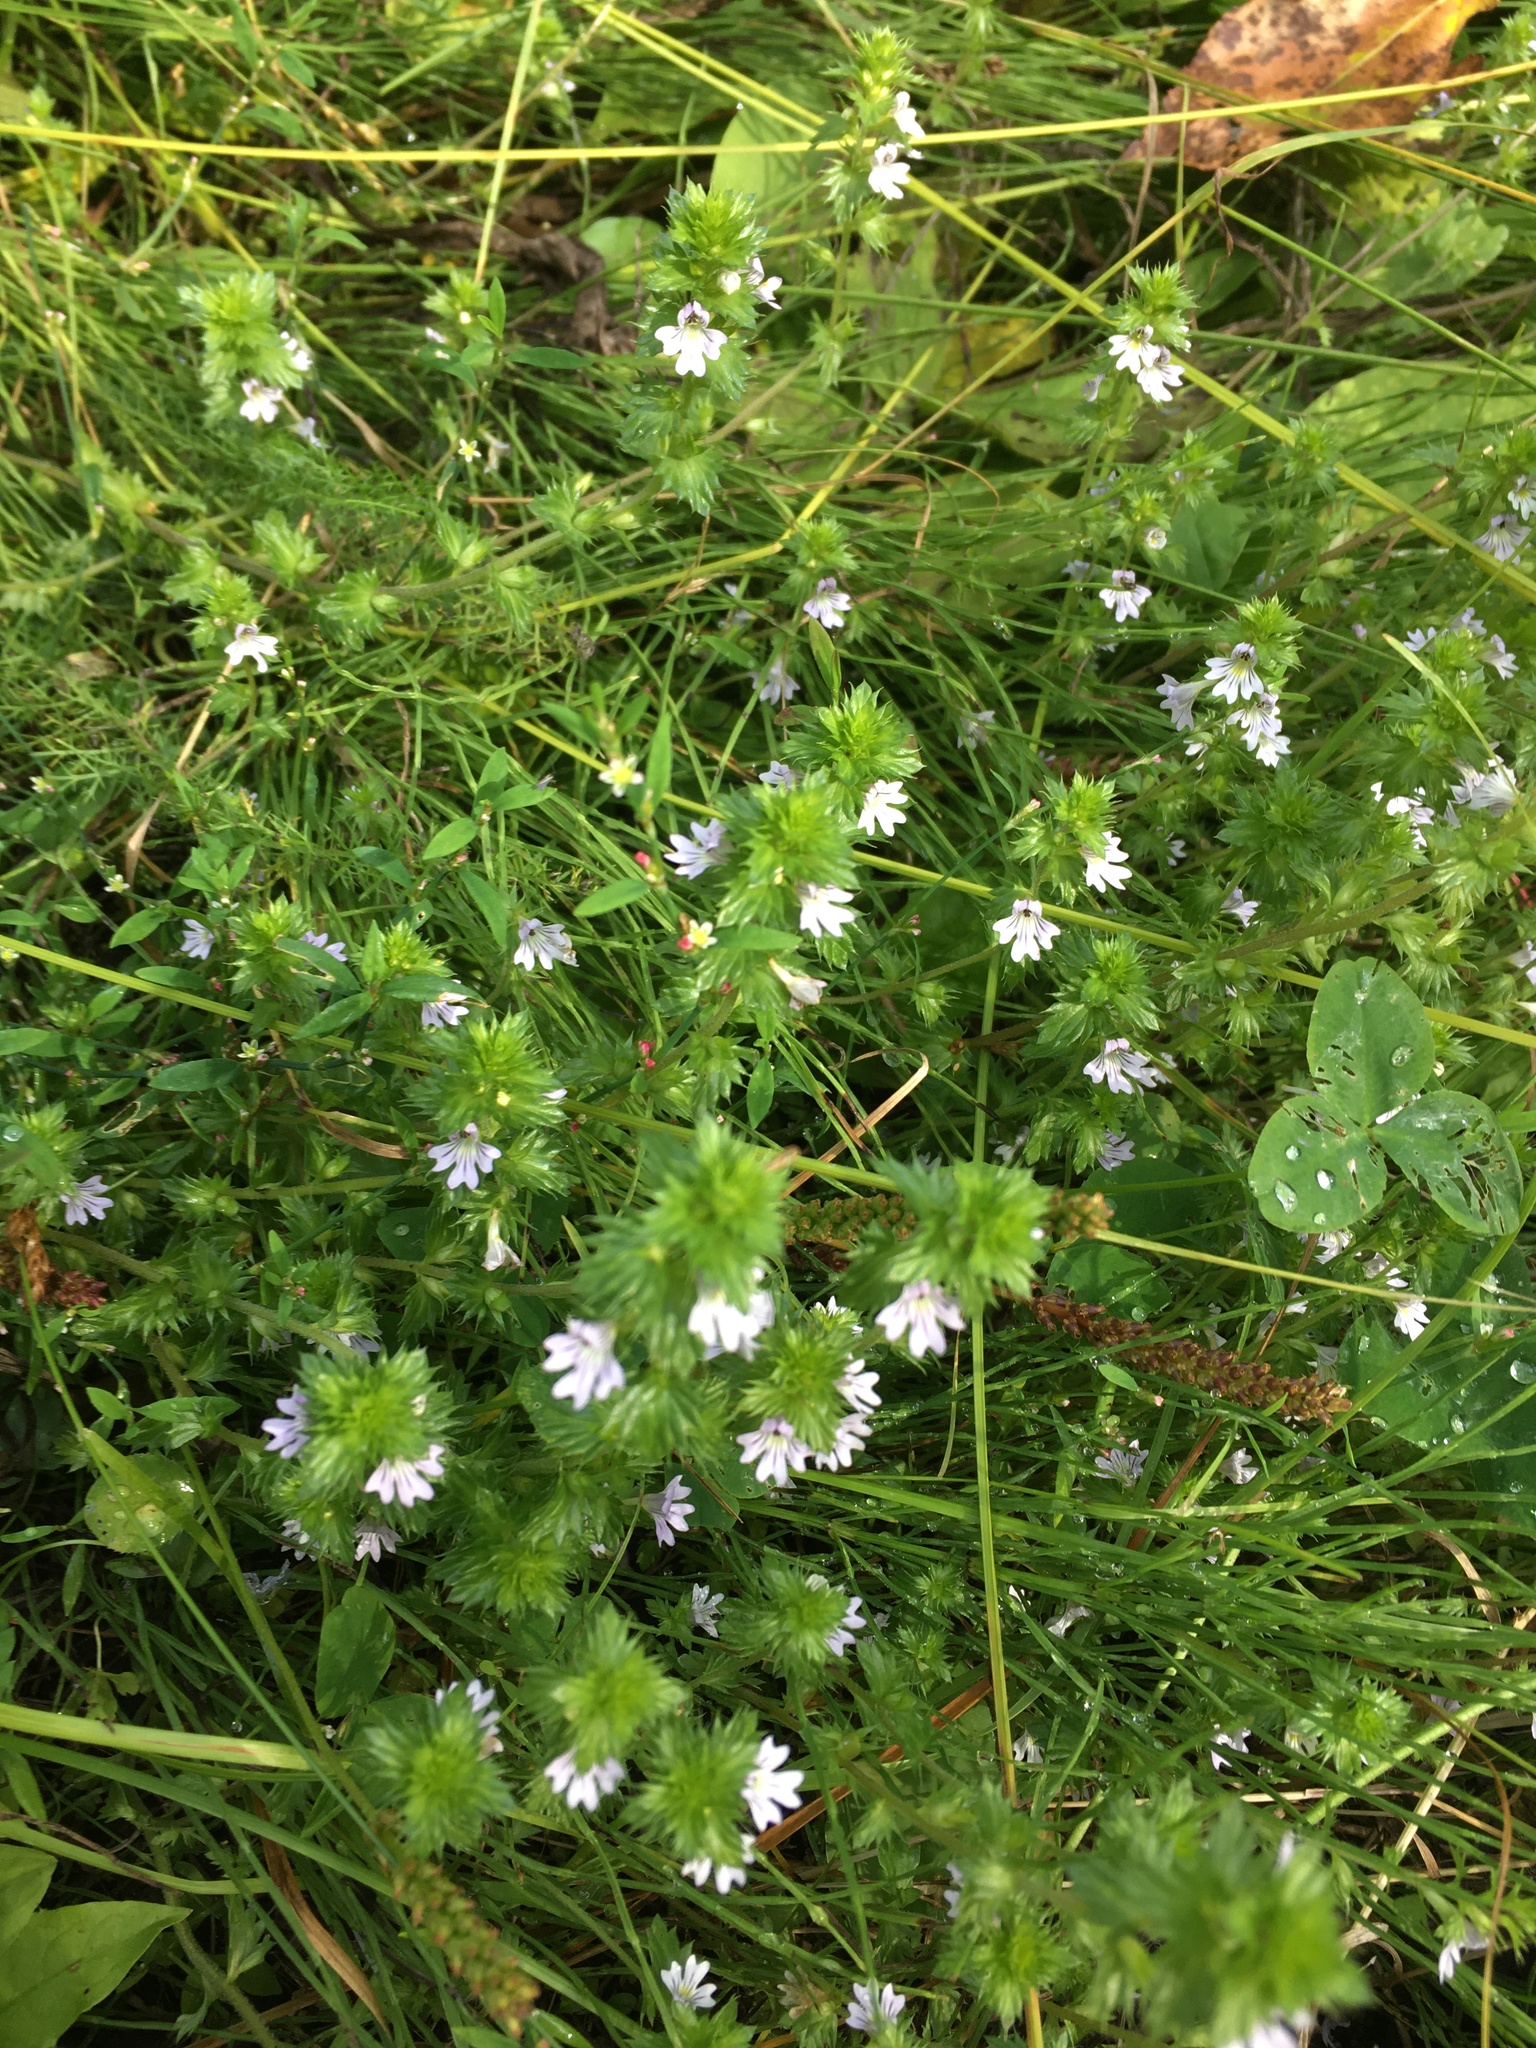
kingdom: Plantae
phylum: Tracheophyta
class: Magnoliopsida
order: Lamiales
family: Orobanchaceae
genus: Euphrasia
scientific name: Euphrasia nemorosa
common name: Common eyebright
